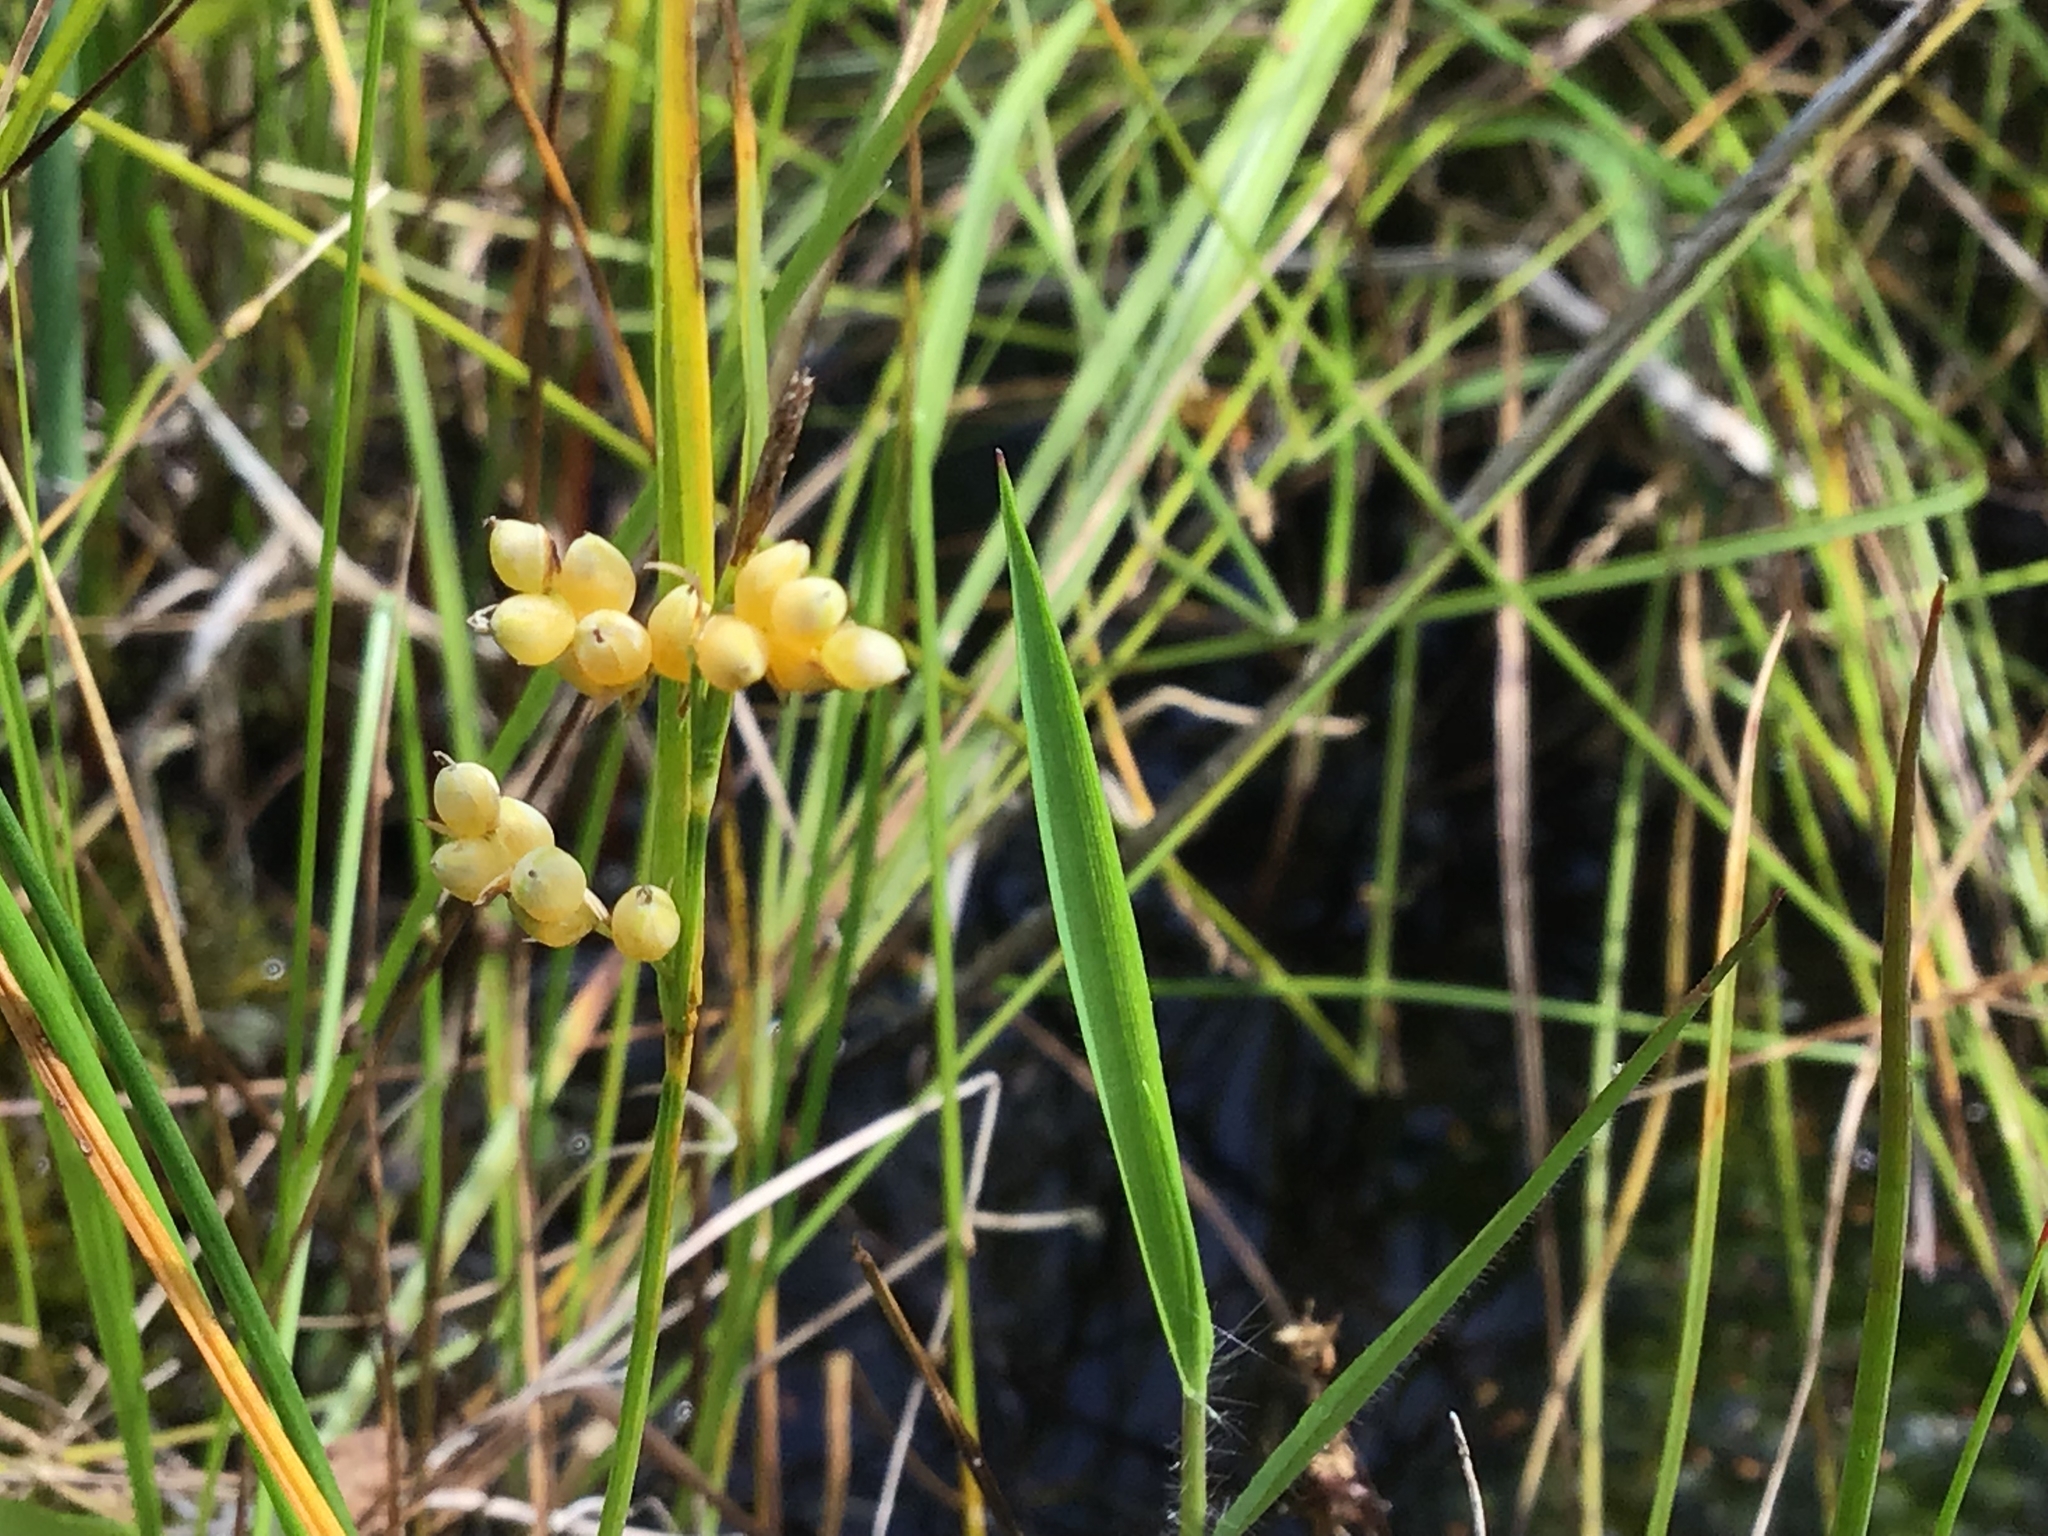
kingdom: Plantae
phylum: Tracheophyta
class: Liliopsida
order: Poales
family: Cyperaceae
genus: Carex
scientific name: Carex aurea
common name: Golden sedge
